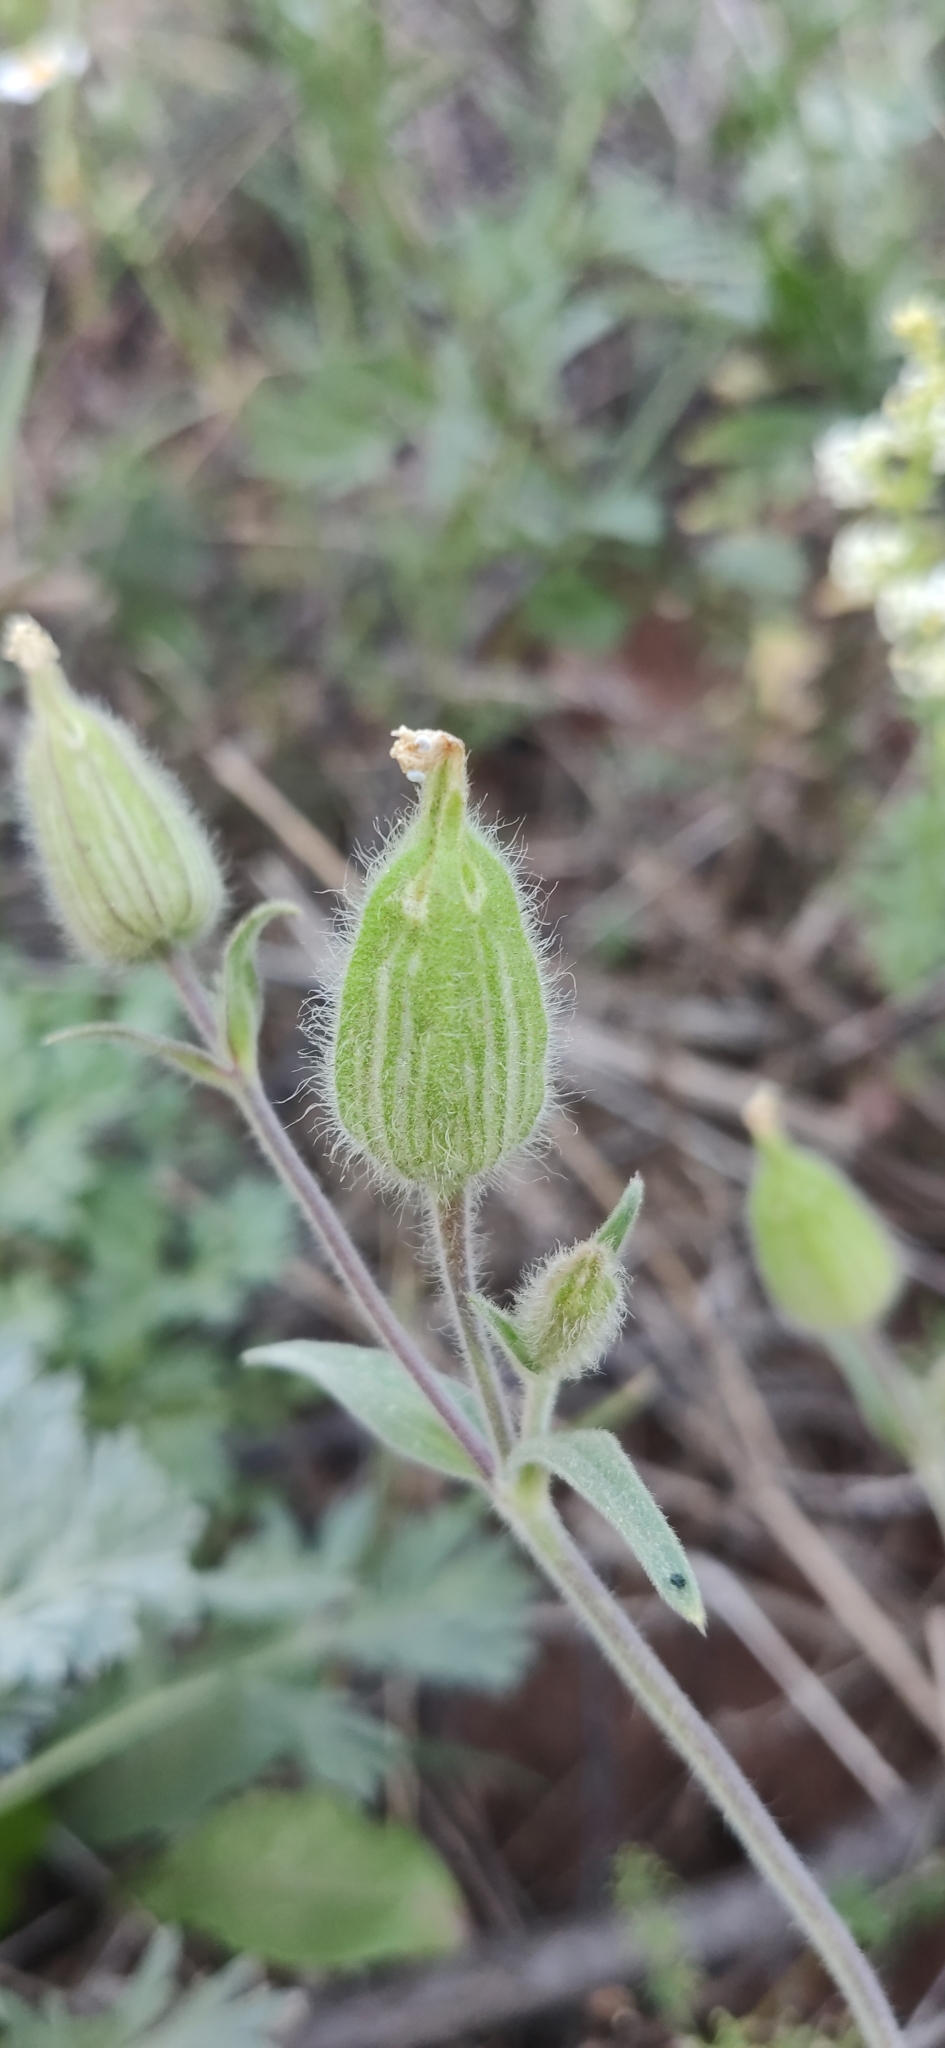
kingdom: Plantae
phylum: Tracheophyta
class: Magnoliopsida
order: Caryophyllales
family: Caryophyllaceae
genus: Silene
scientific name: Silene latifolia
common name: White campion
